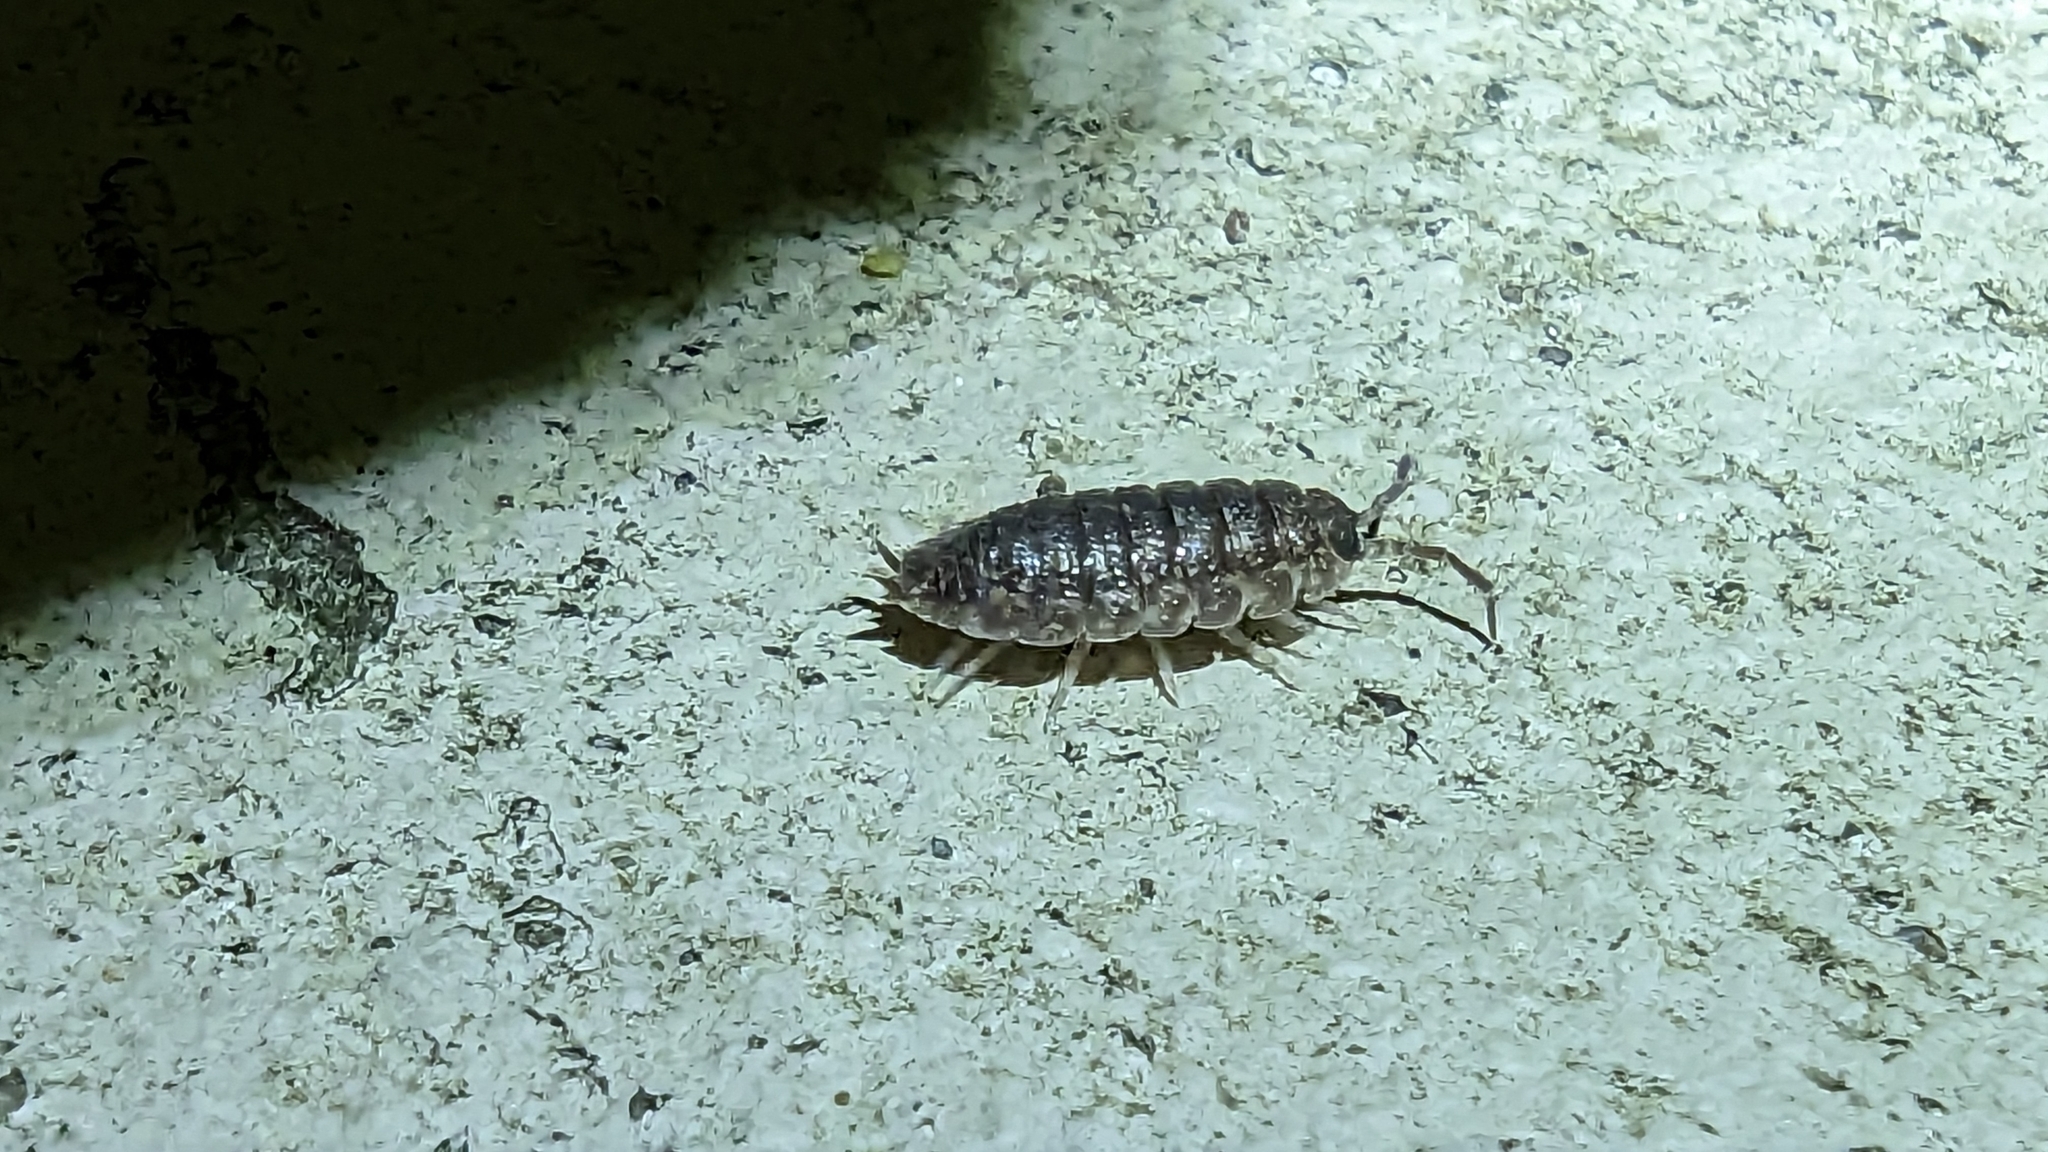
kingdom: Animalia
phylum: Arthropoda
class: Malacostraca
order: Isopoda
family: Porcellionidae
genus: Porcellio
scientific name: Porcellio scaber
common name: Common rough woodlouse
